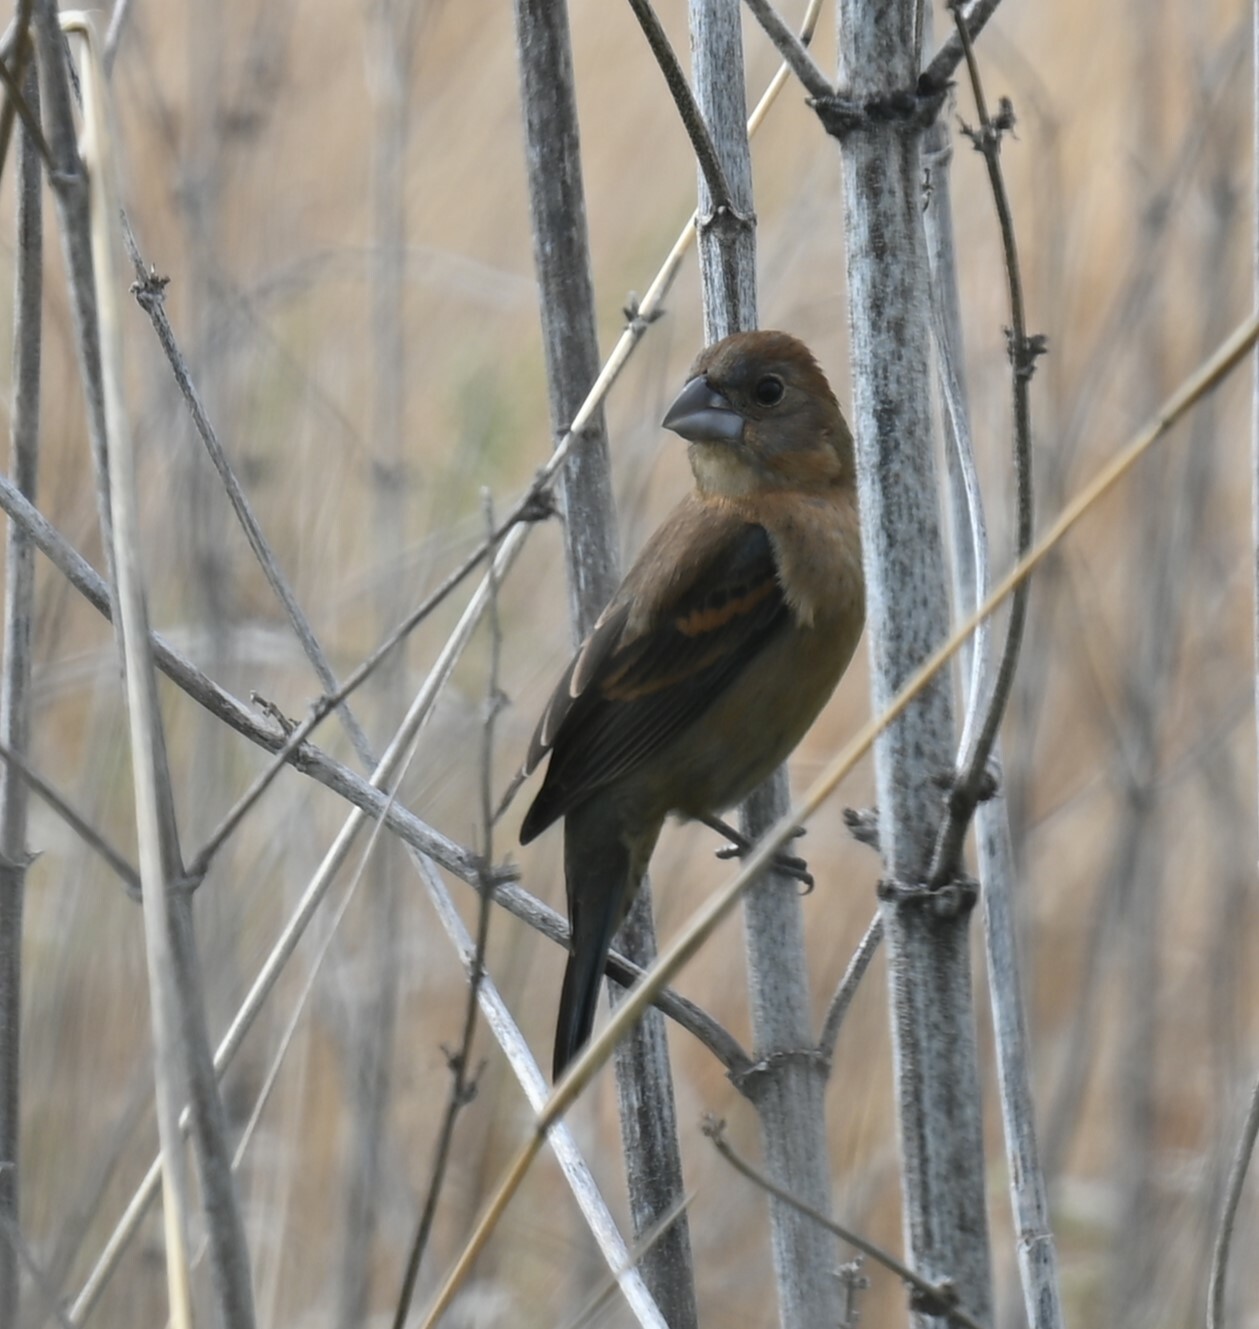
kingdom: Animalia
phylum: Chordata
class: Aves
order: Passeriformes
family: Cardinalidae
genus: Passerina
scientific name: Passerina caerulea
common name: Blue grosbeak
